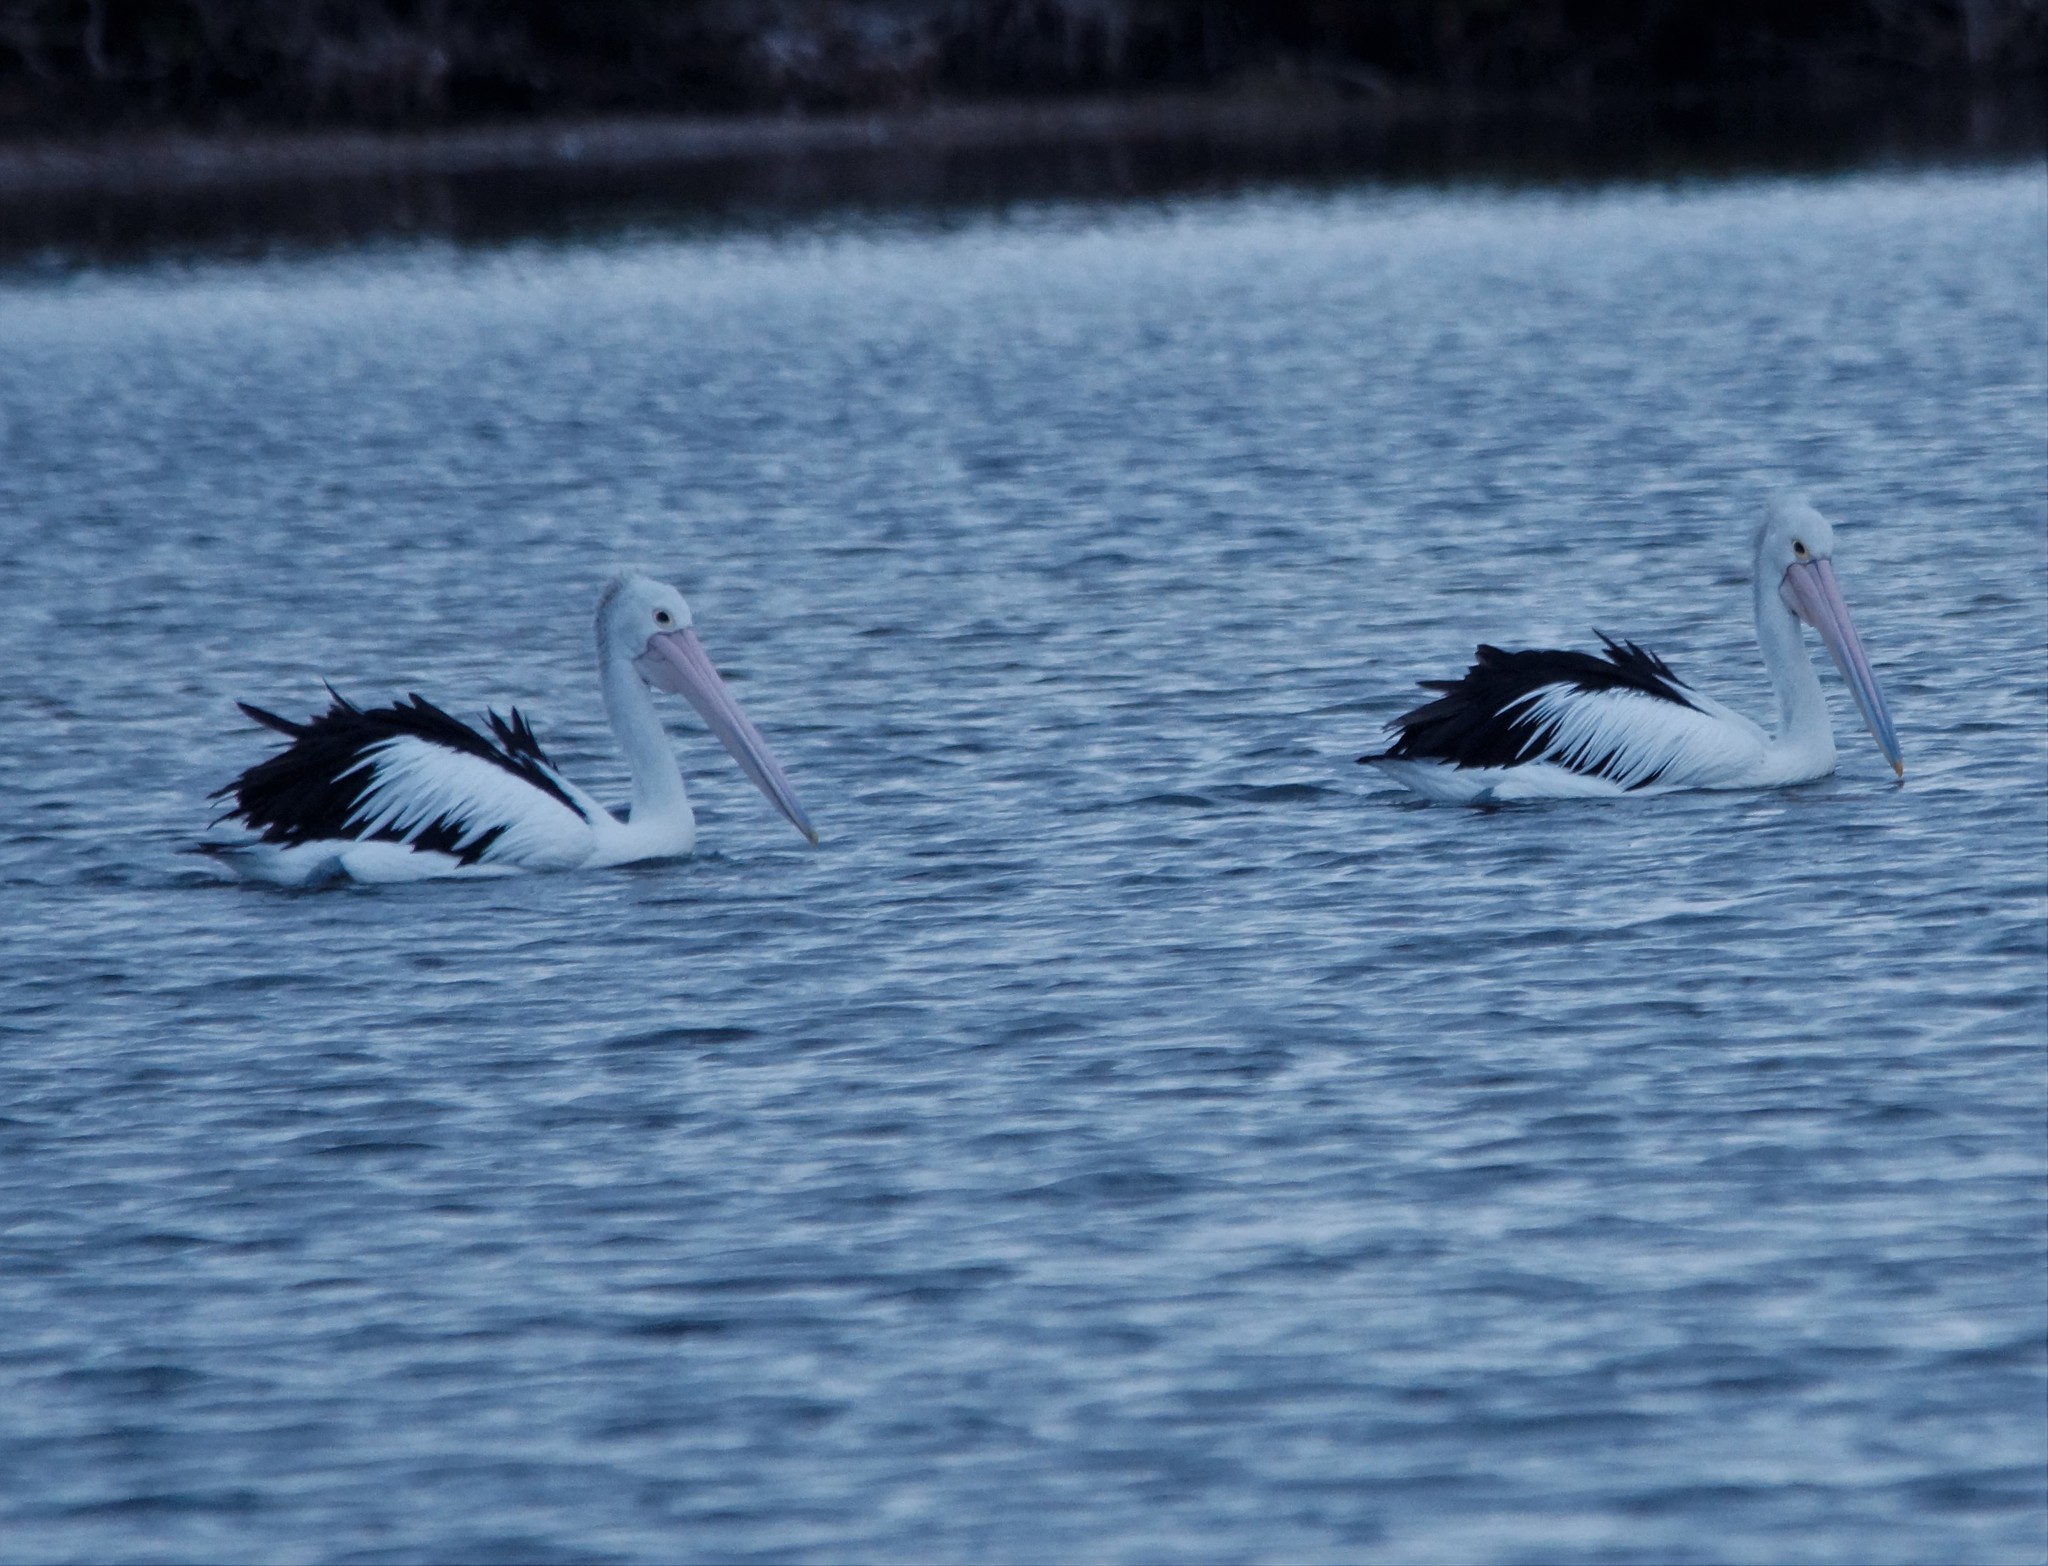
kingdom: Animalia
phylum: Chordata
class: Aves
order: Pelecaniformes
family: Pelecanidae
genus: Pelecanus
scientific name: Pelecanus conspicillatus
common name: Australian pelican
